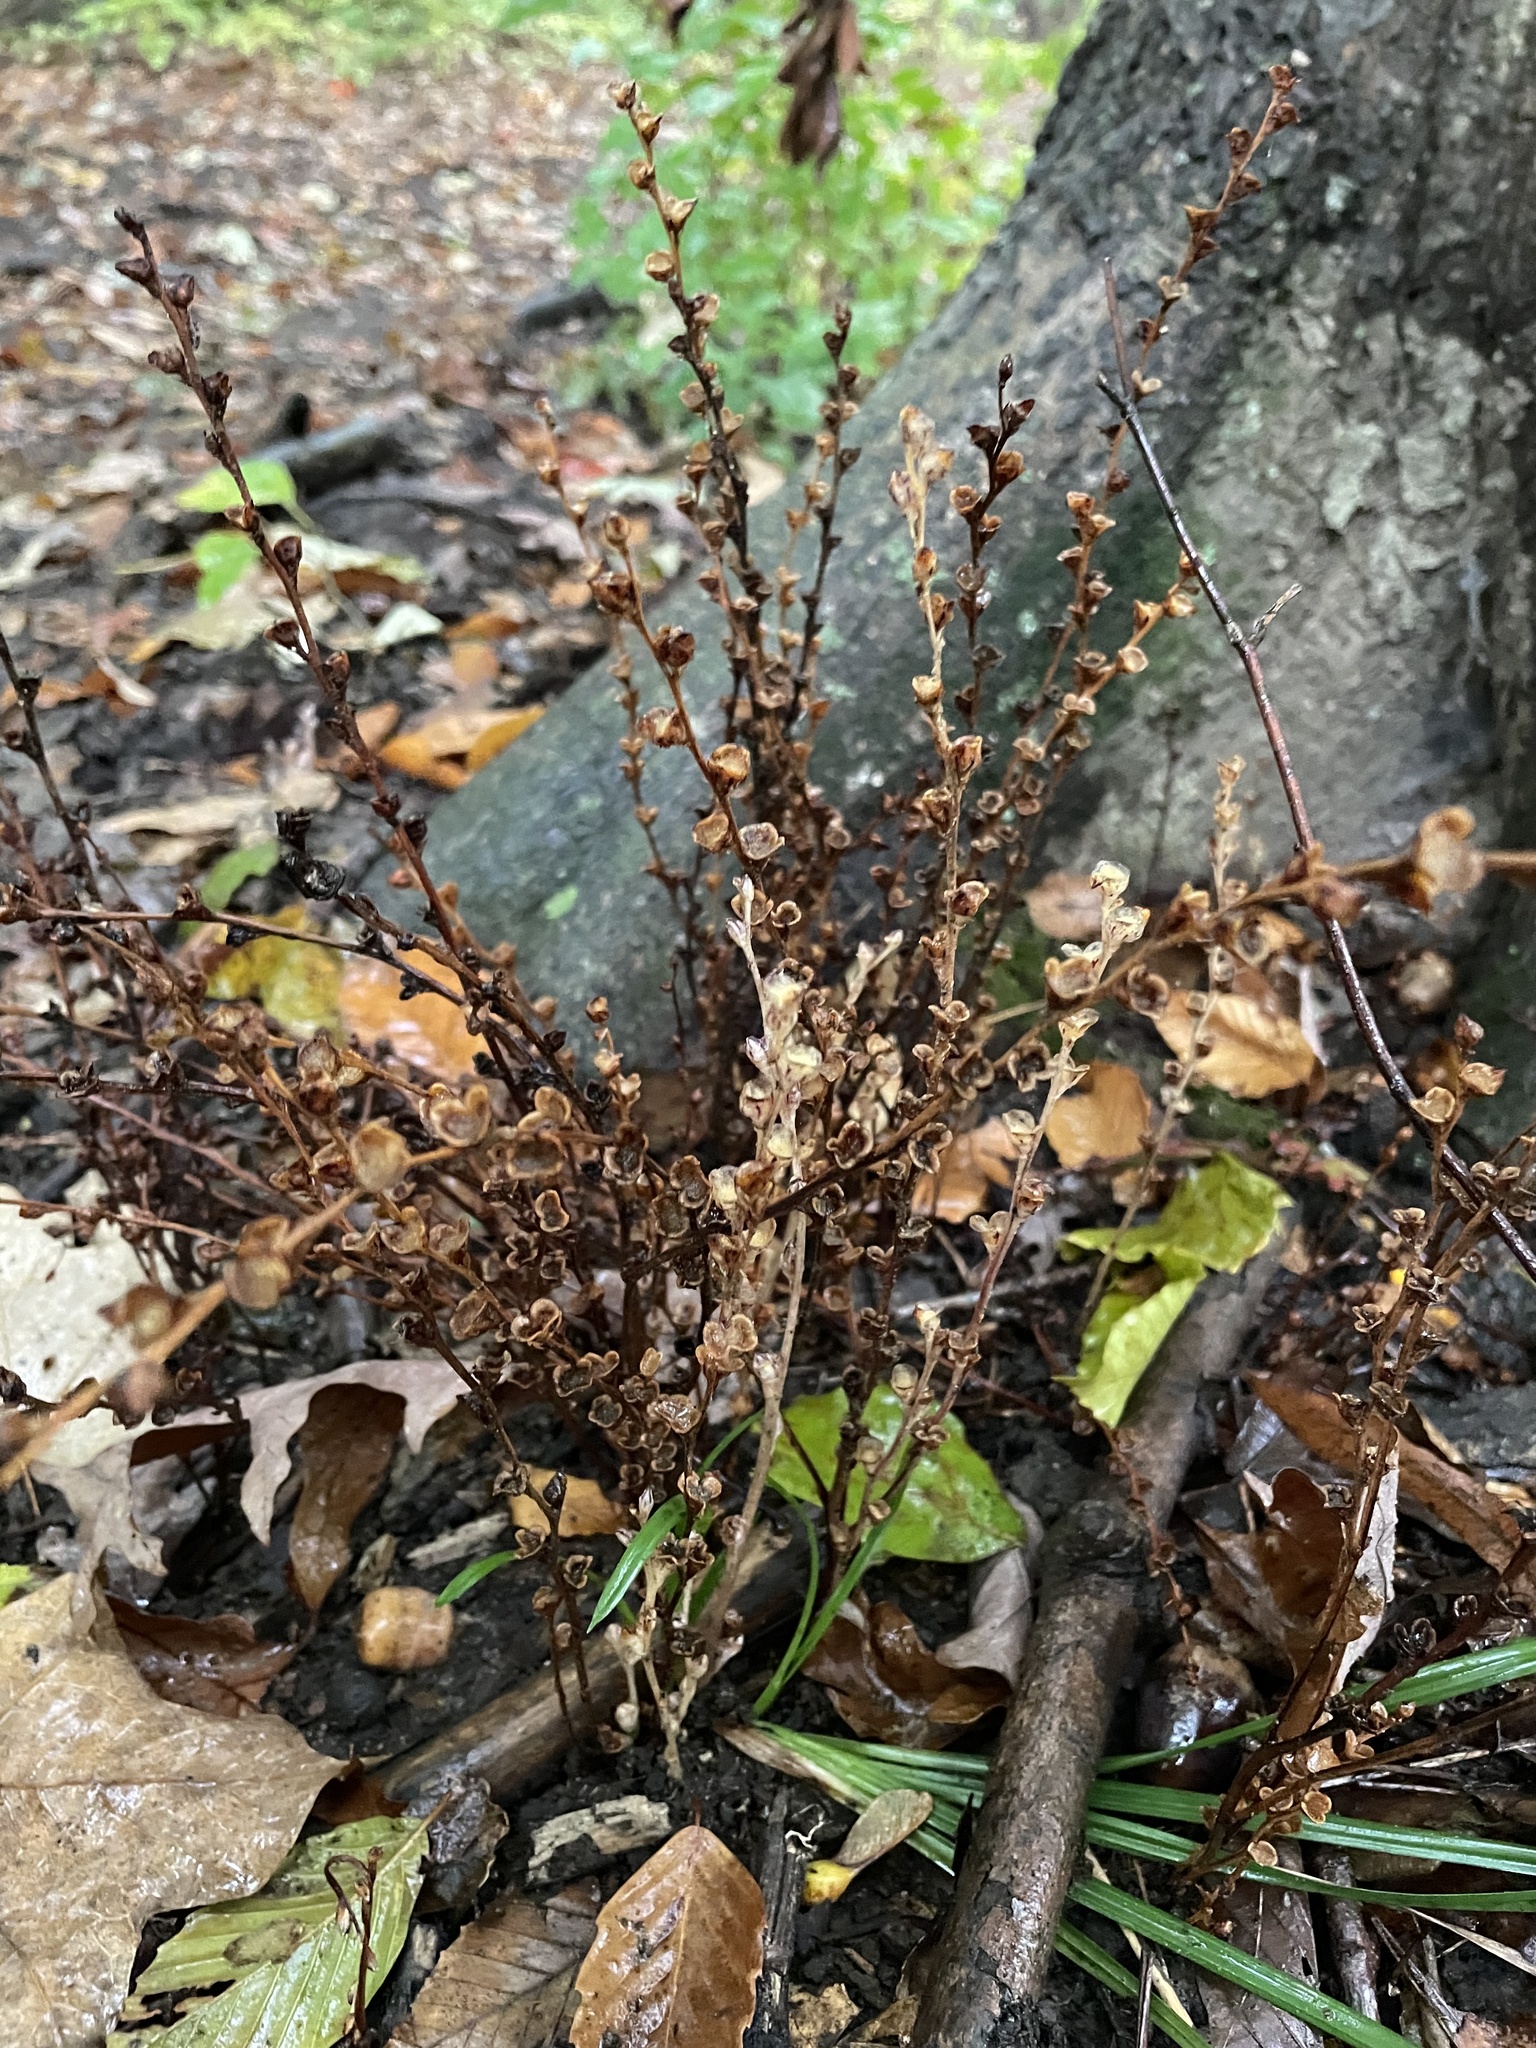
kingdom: Plantae
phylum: Tracheophyta
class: Magnoliopsida
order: Lamiales
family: Orobanchaceae
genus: Epifagus
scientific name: Epifagus virginiana
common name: Beechdrops
